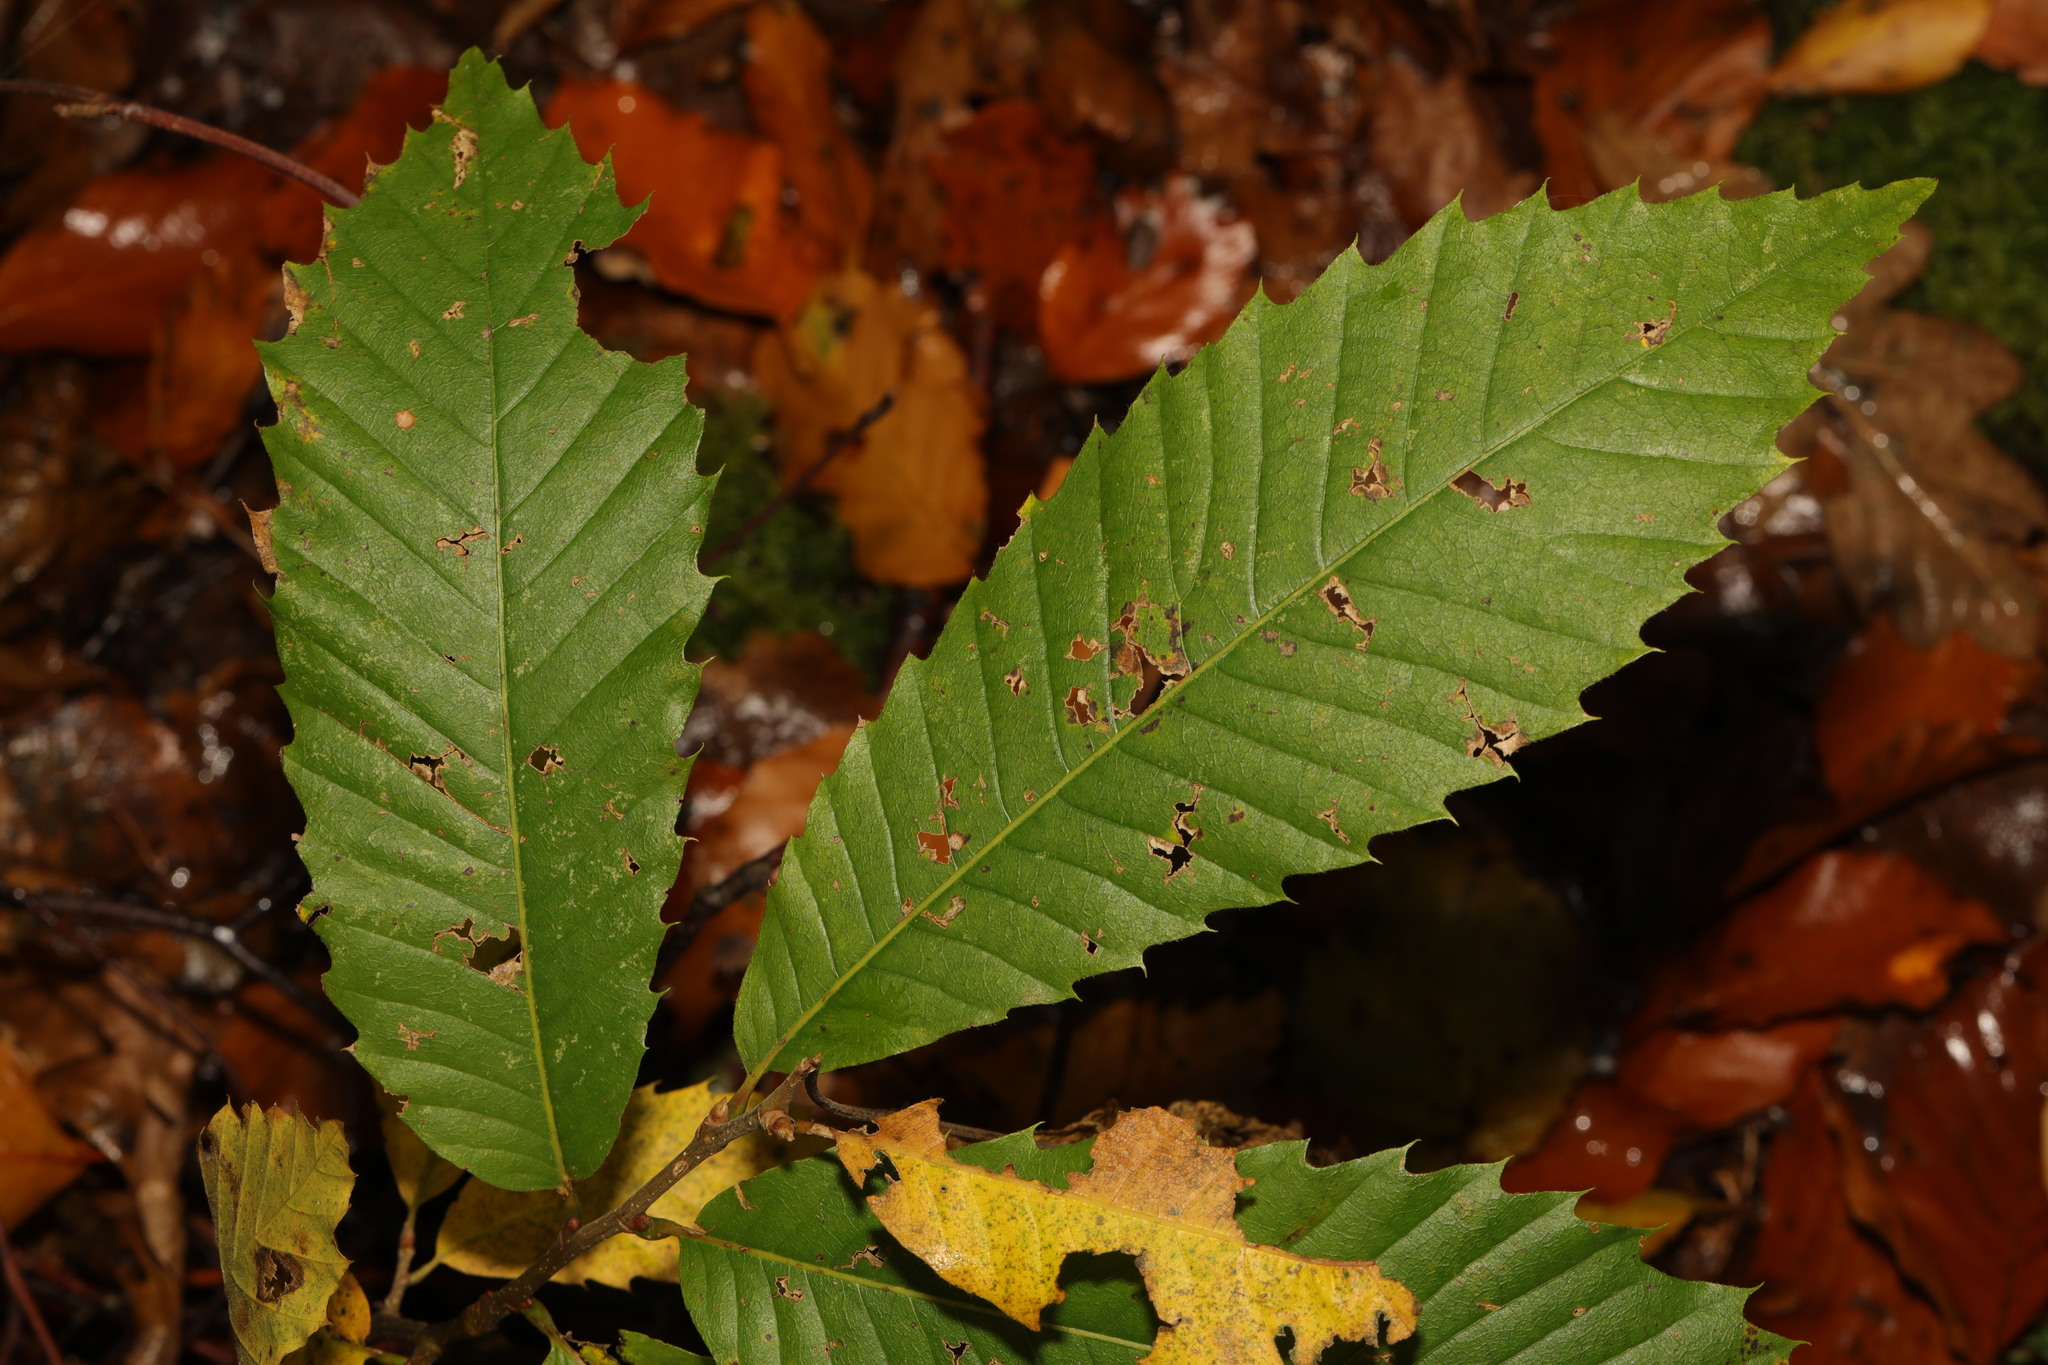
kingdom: Plantae
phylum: Tracheophyta
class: Magnoliopsida
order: Fagales
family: Fagaceae
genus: Castanea
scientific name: Castanea sativa
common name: Sweet chestnut
